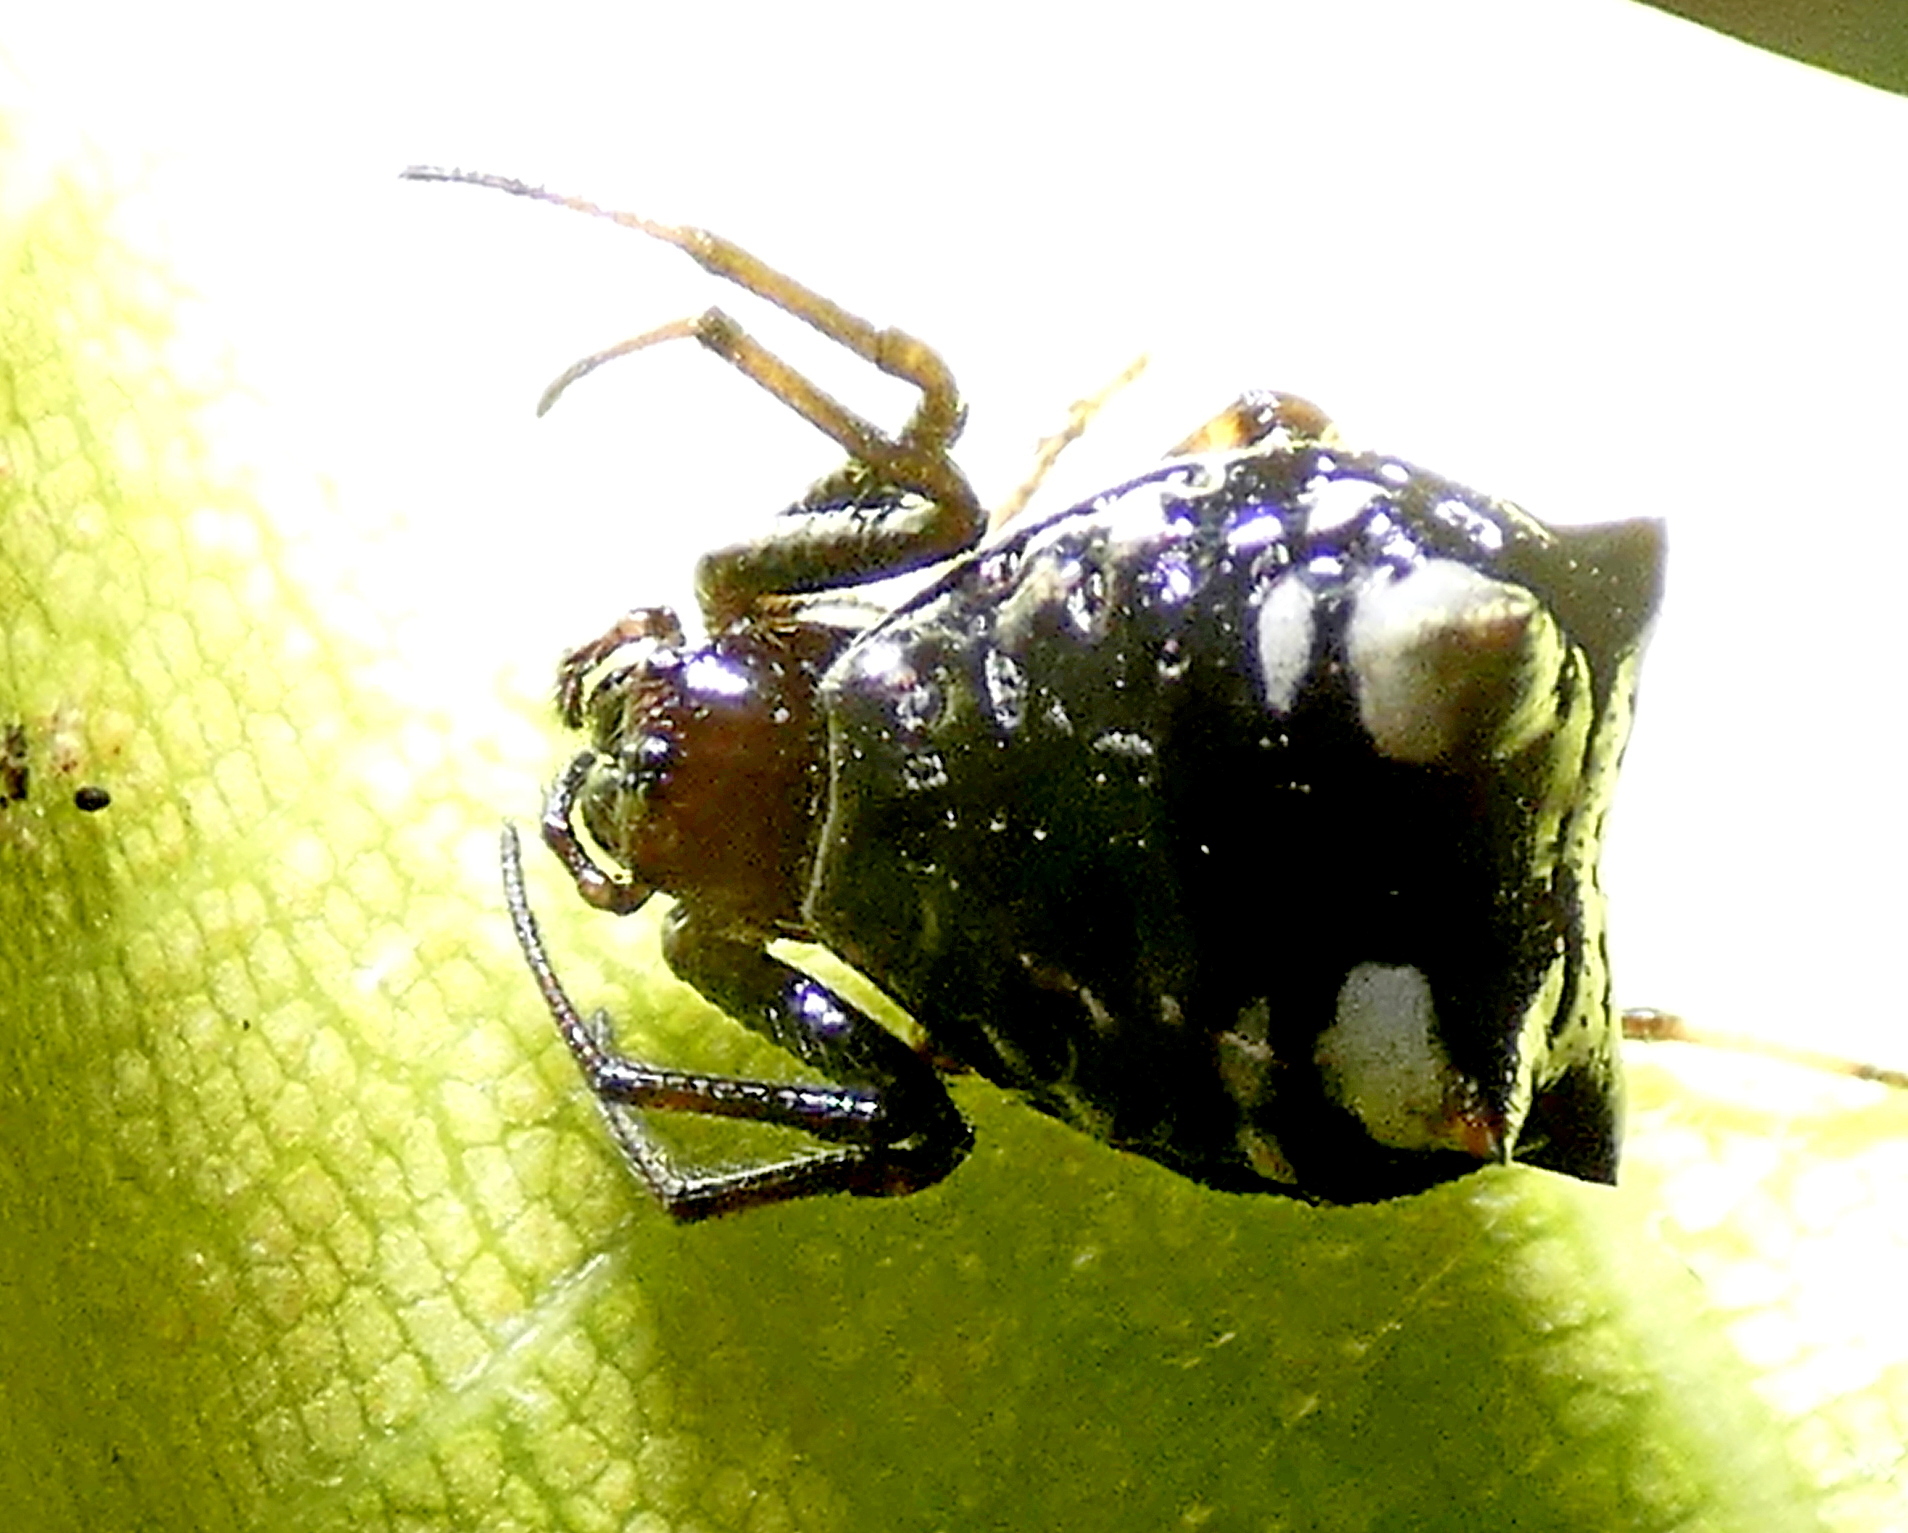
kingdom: Animalia
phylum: Arthropoda
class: Arachnida
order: Araneae
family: Araneidae
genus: Micrathena
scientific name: Micrathena patruelis
